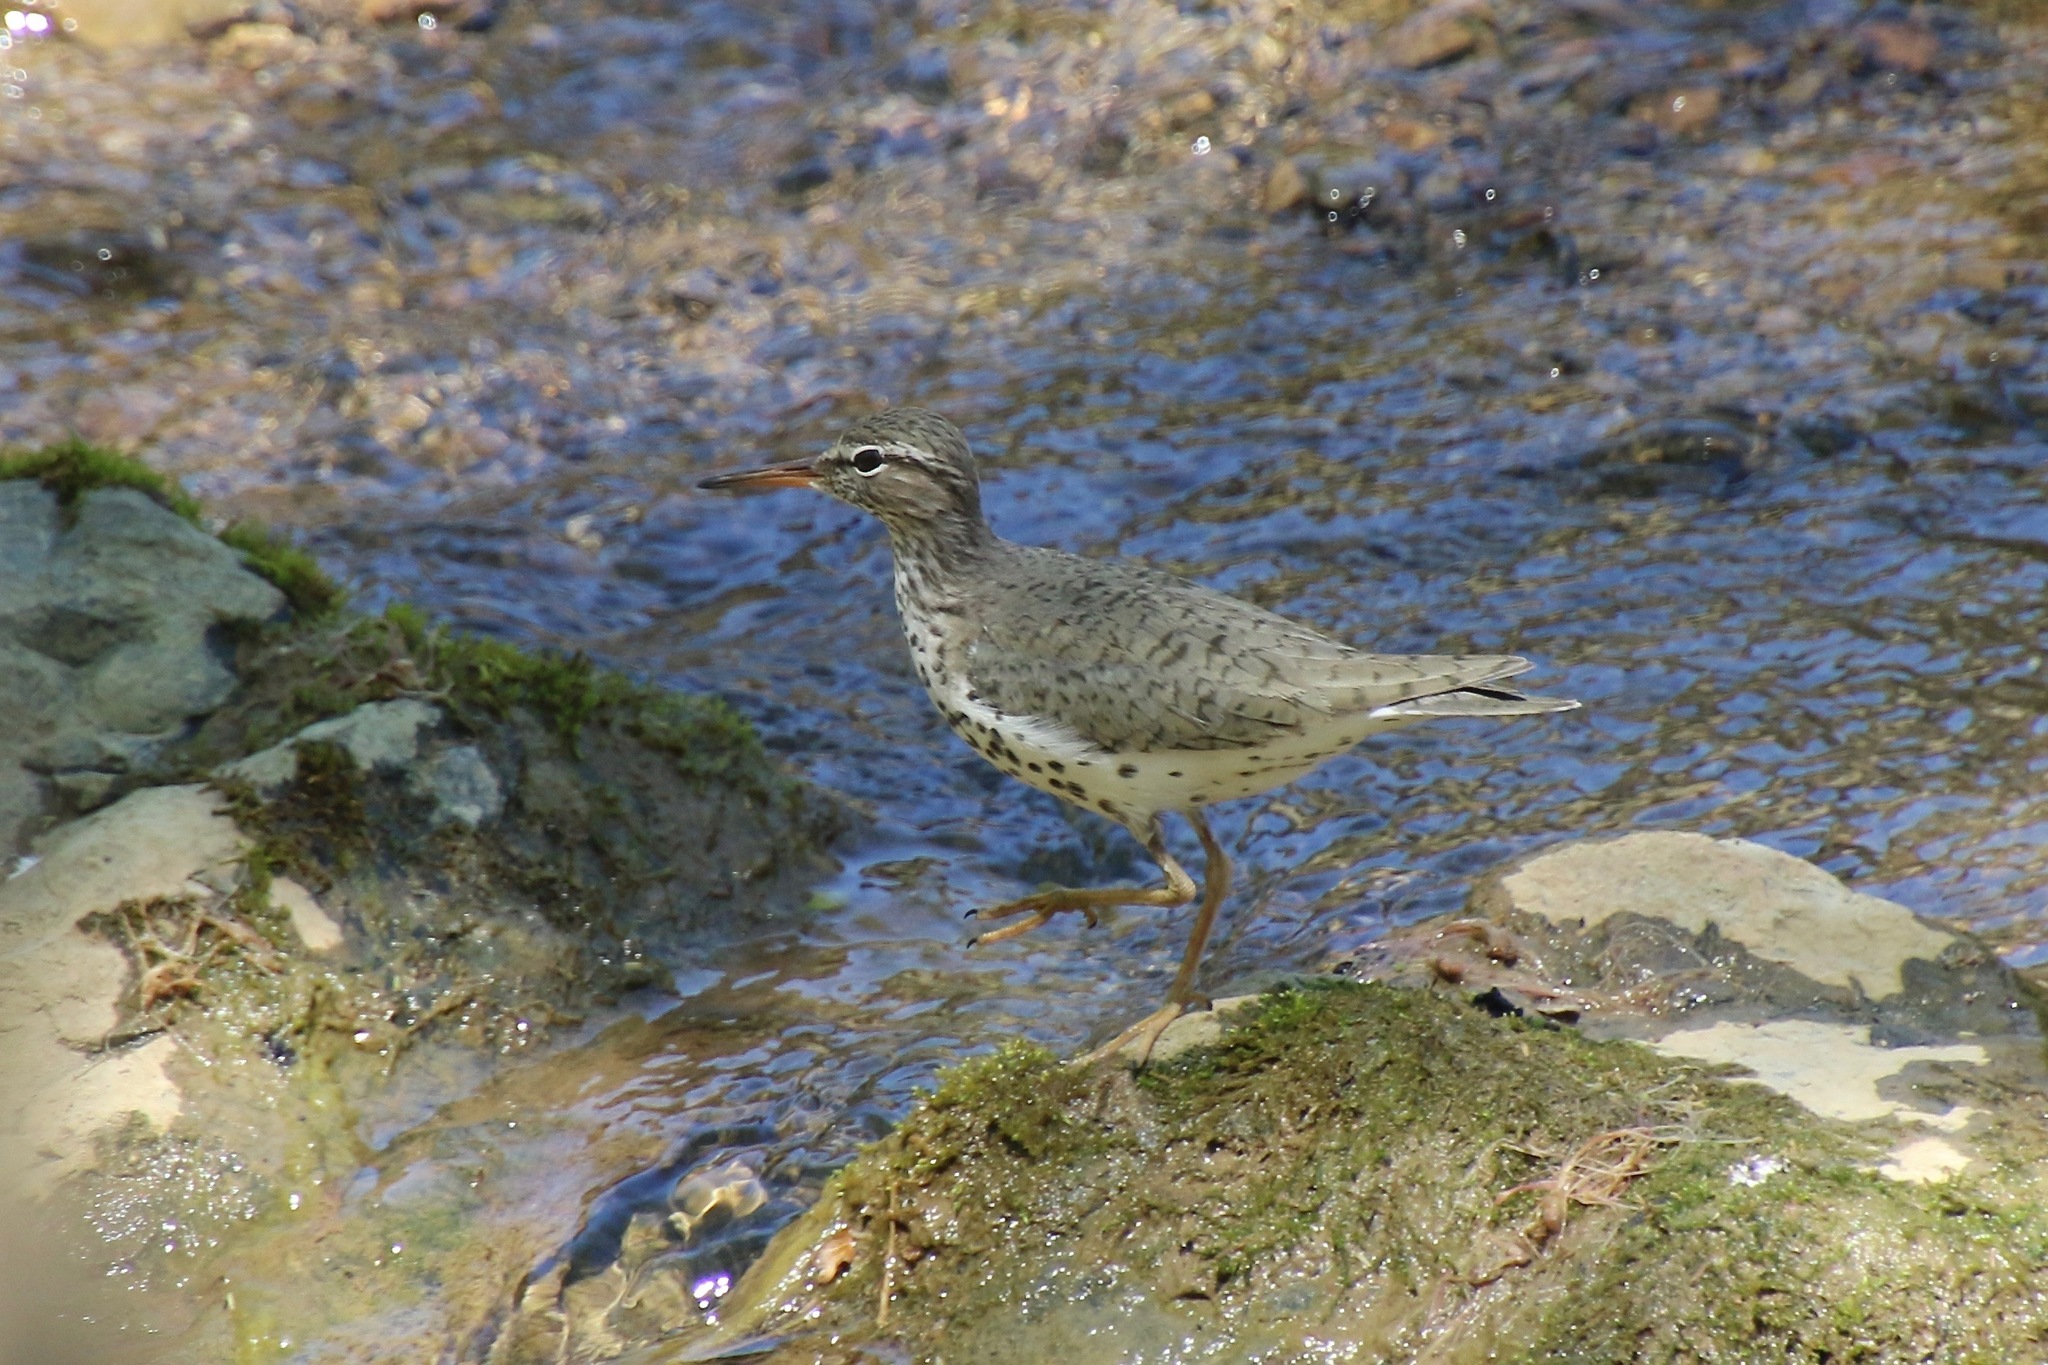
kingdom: Animalia
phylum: Chordata
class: Aves
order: Charadriiformes
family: Scolopacidae
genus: Actitis
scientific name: Actitis macularius
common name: Spotted sandpiper
